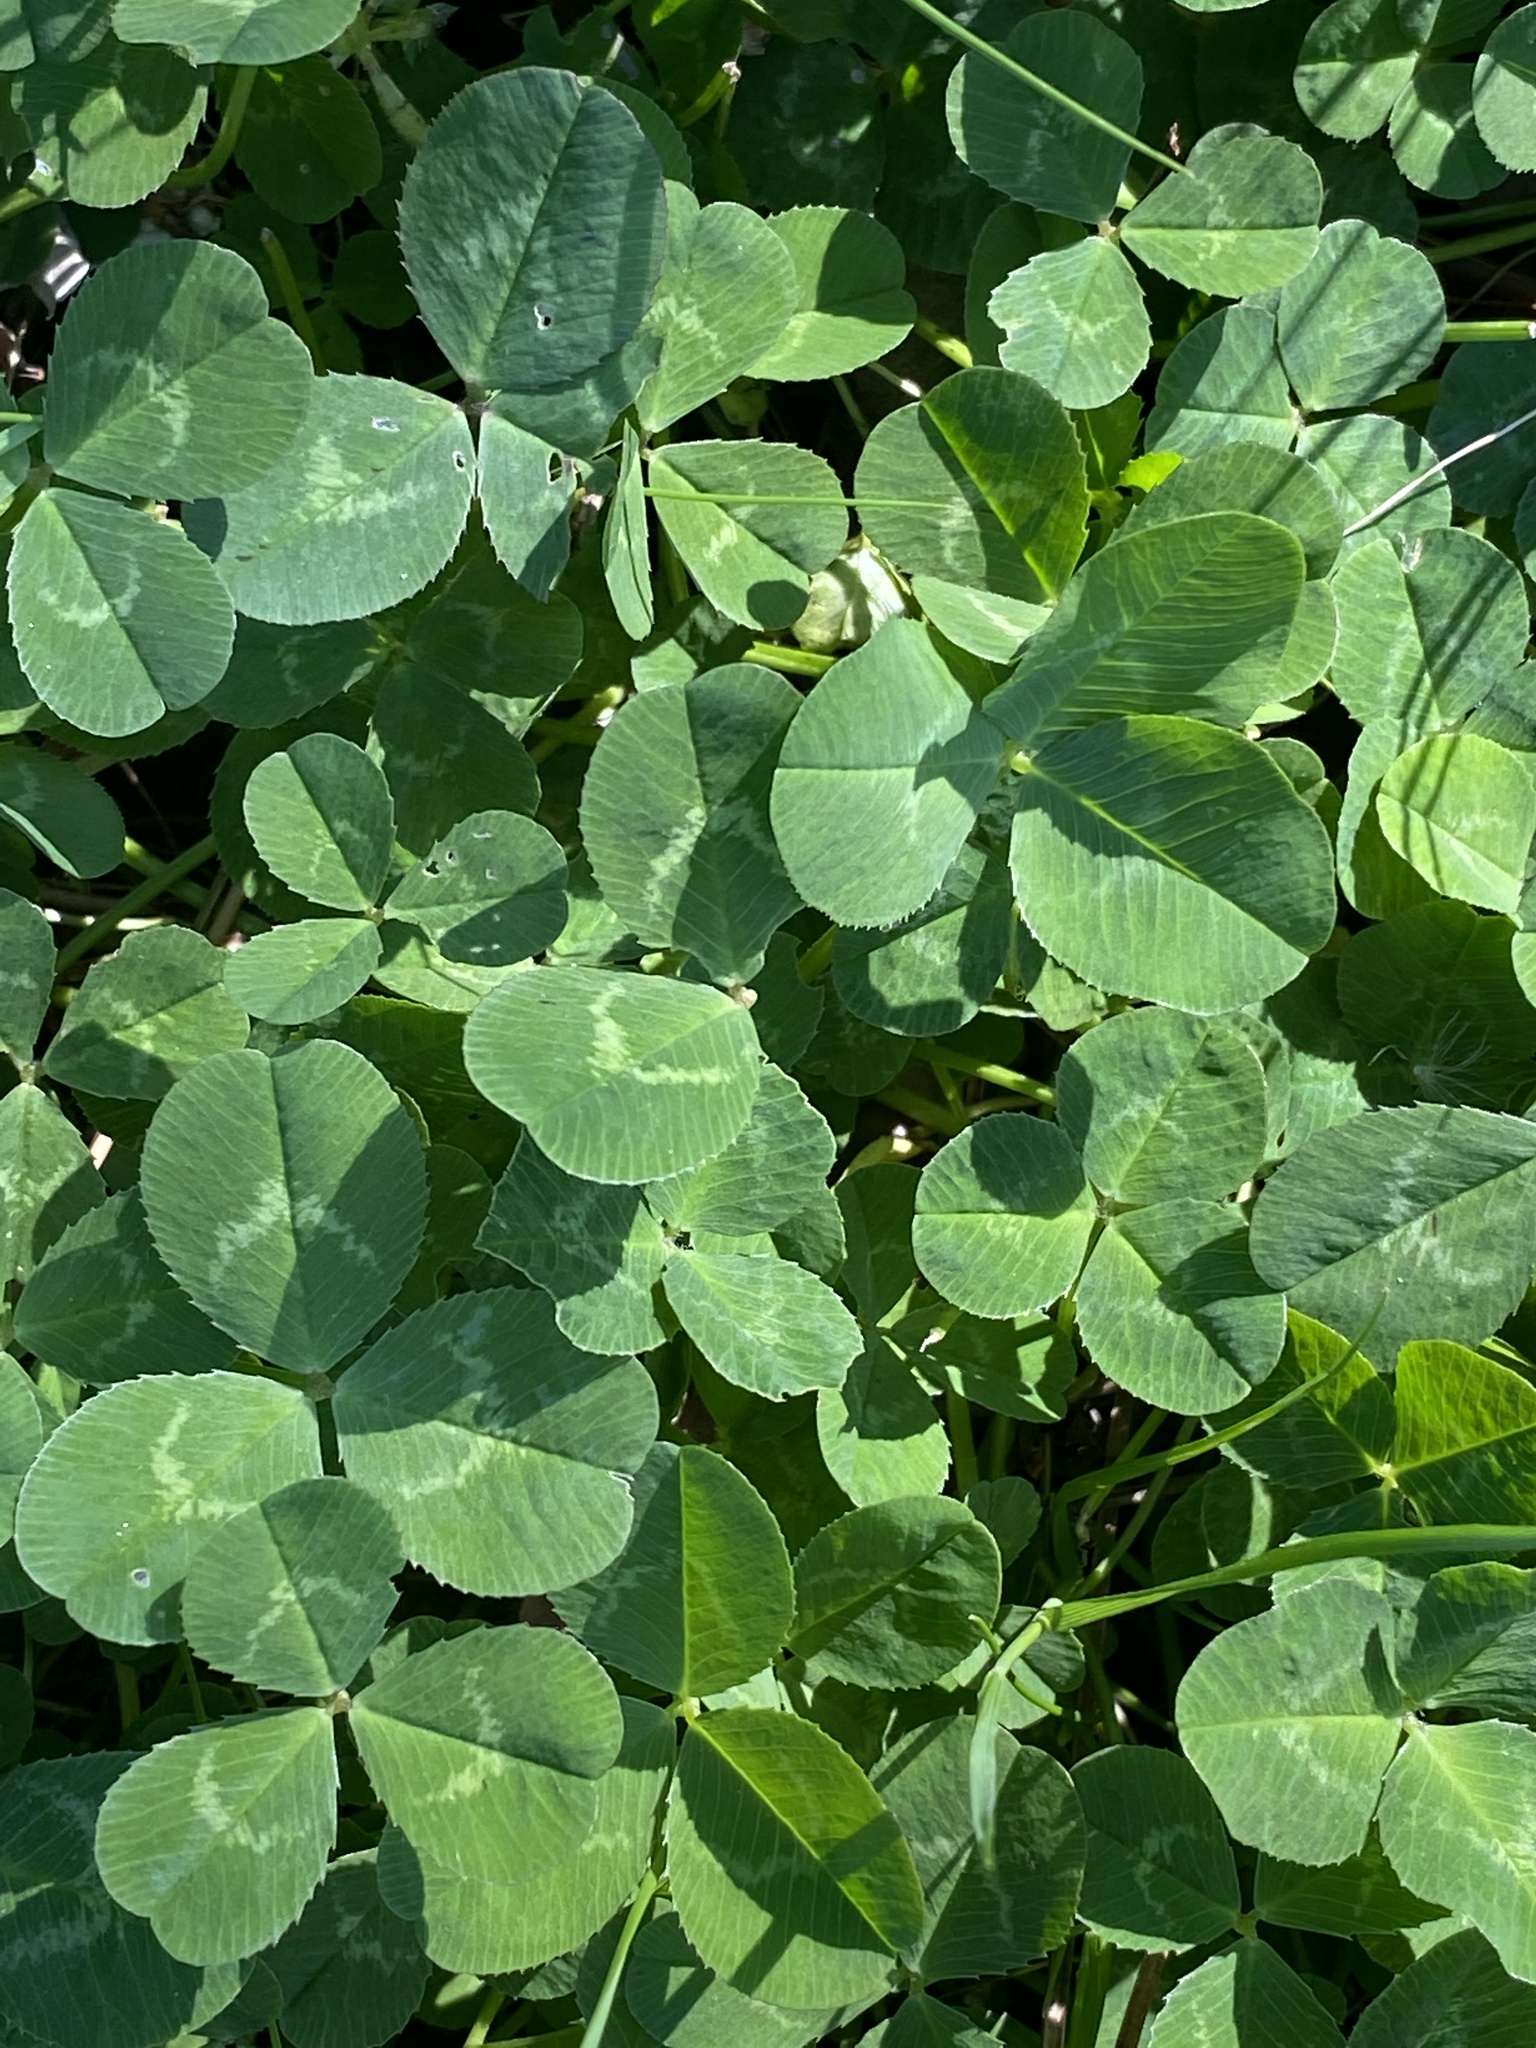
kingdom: Plantae
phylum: Tracheophyta
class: Magnoliopsida
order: Fabales
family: Fabaceae
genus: Trifolium
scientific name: Trifolium repens
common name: White clover
